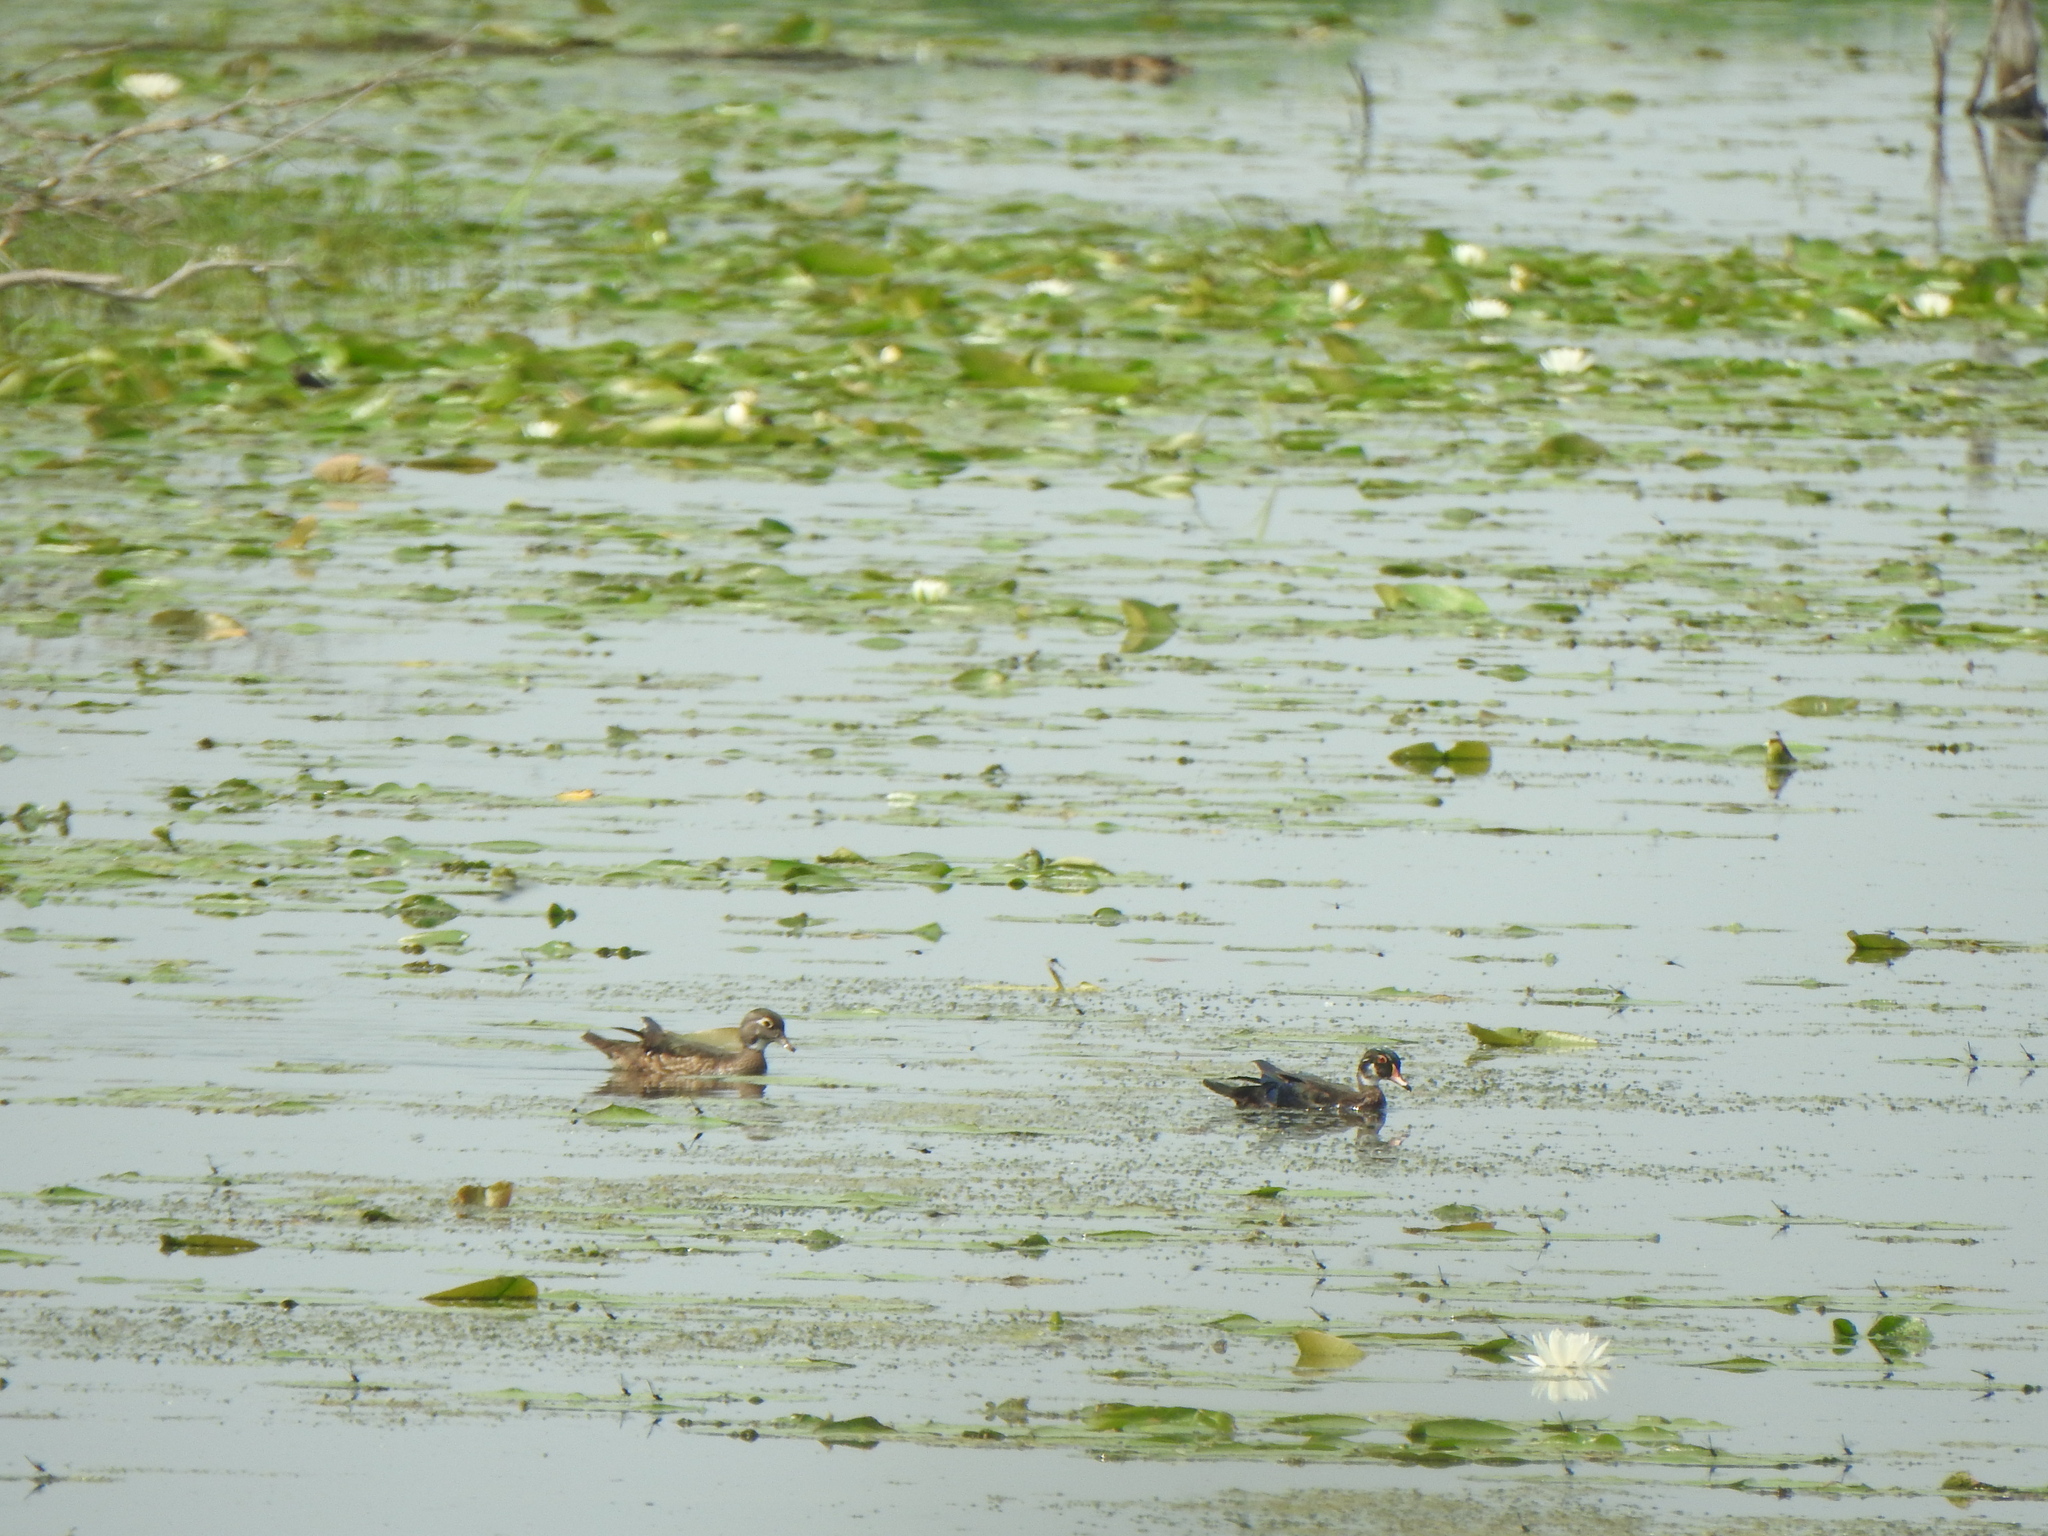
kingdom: Animalia
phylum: Chordata
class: Aves
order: Anseriformes
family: Anatidae
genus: Aix
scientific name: Aix sponsa
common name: Wood duck
